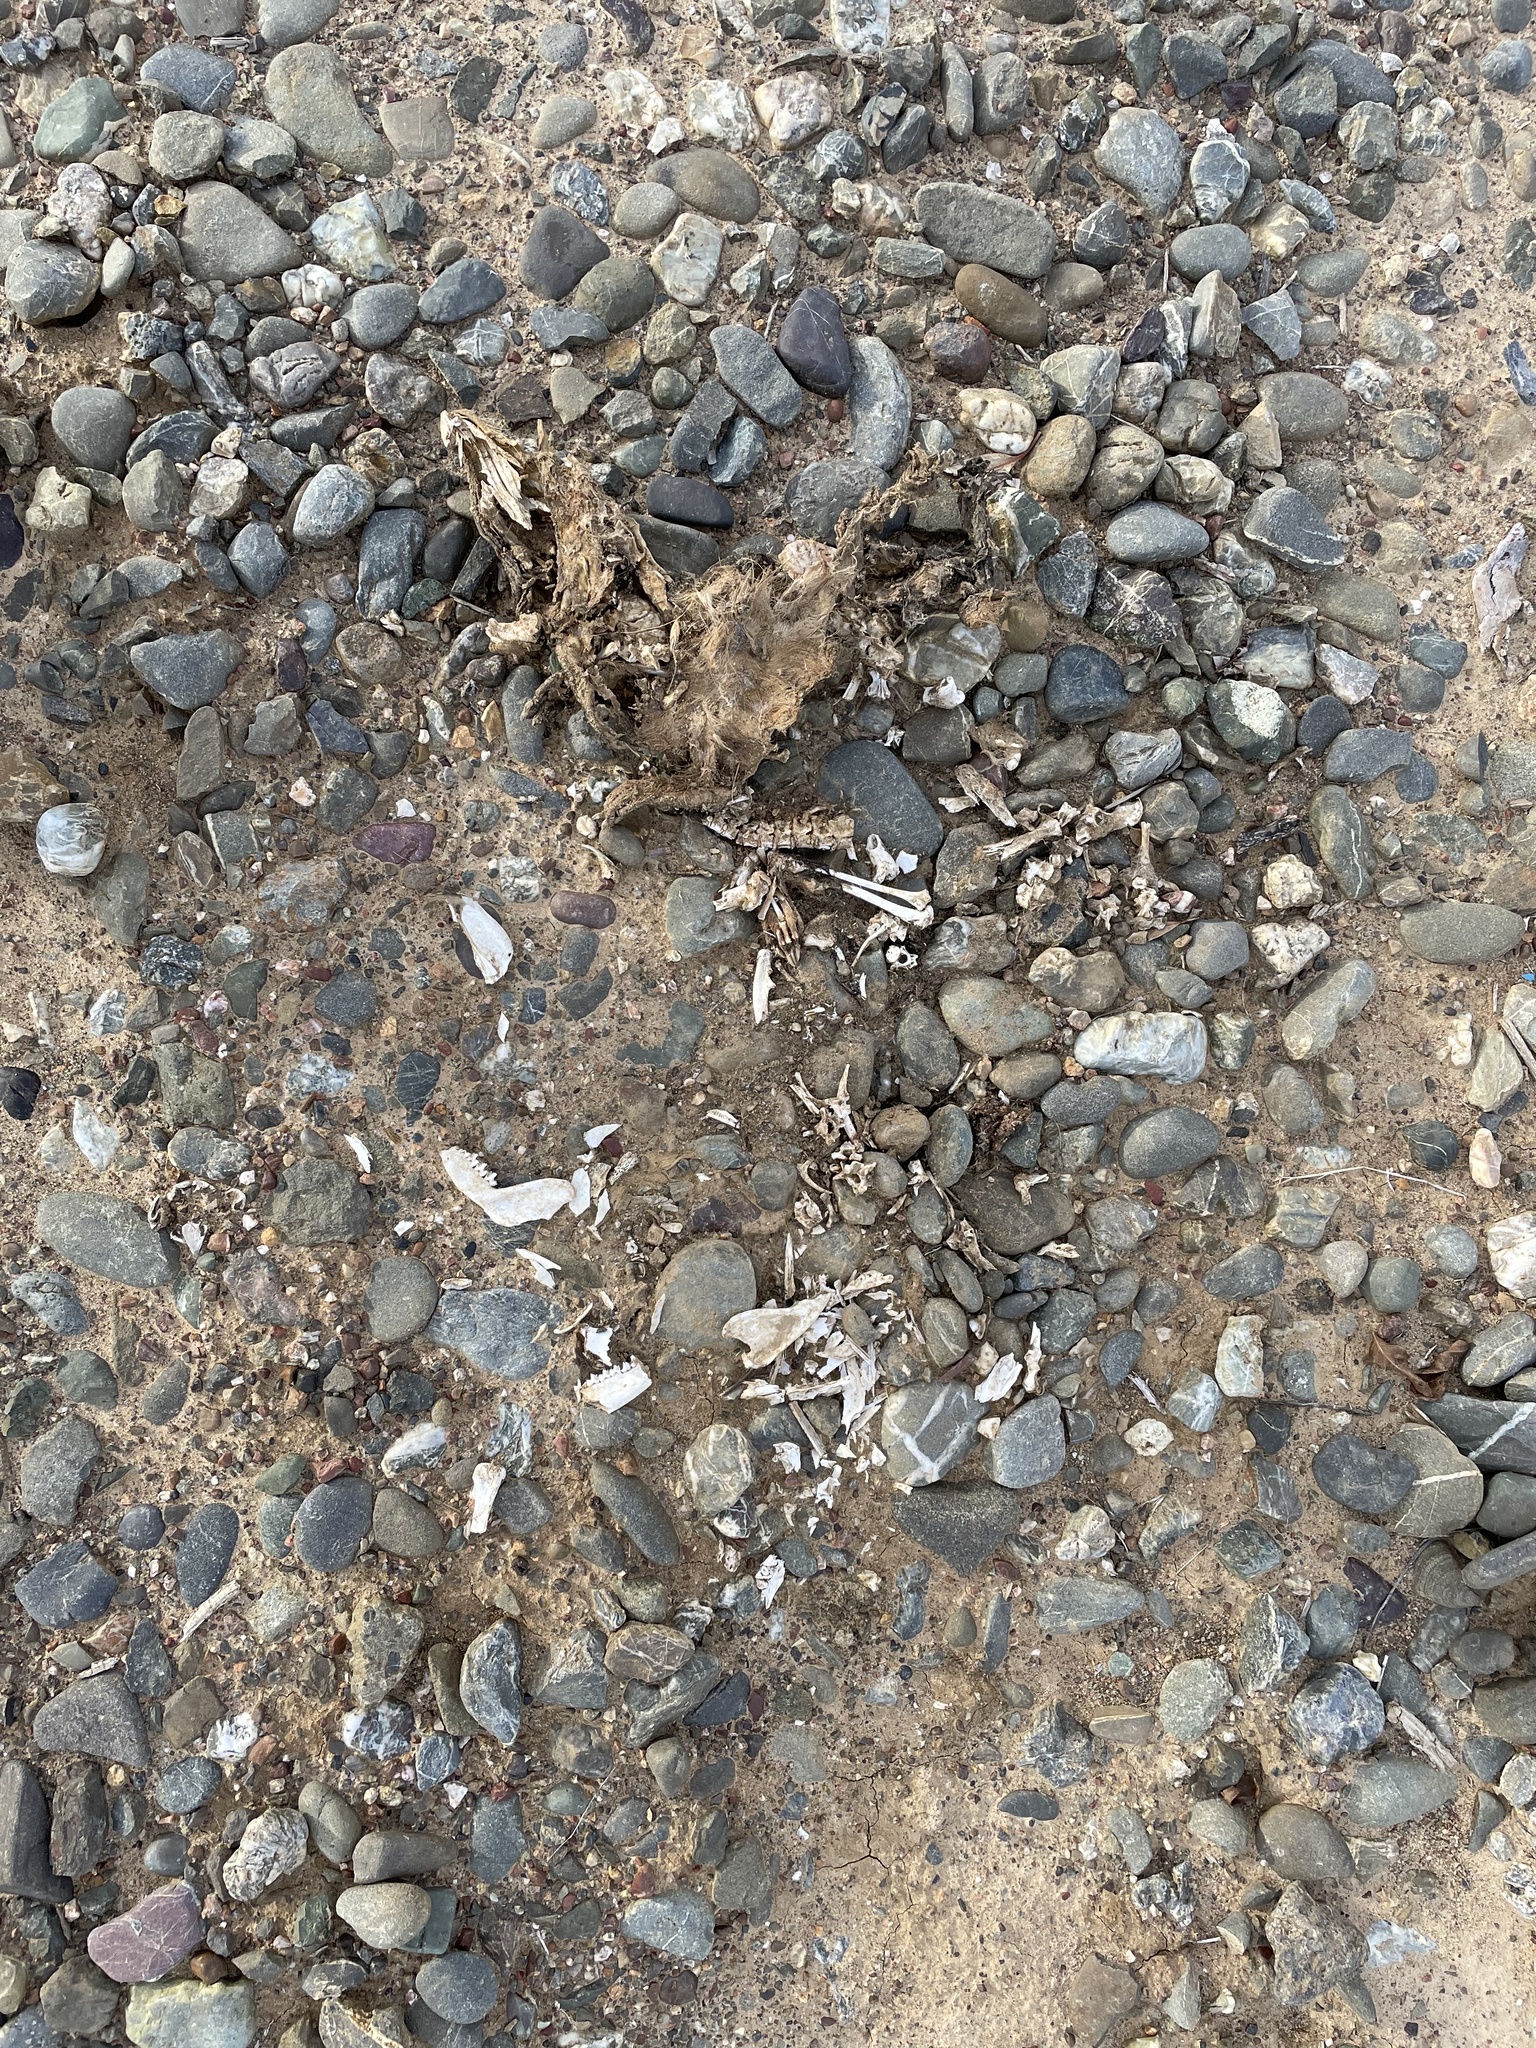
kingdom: Animalia
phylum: Chordata
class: Mammalia
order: Didelphimorphia
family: Didelphidae
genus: Didelphis
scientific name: Didelphis virginiana
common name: Virginia opossum
